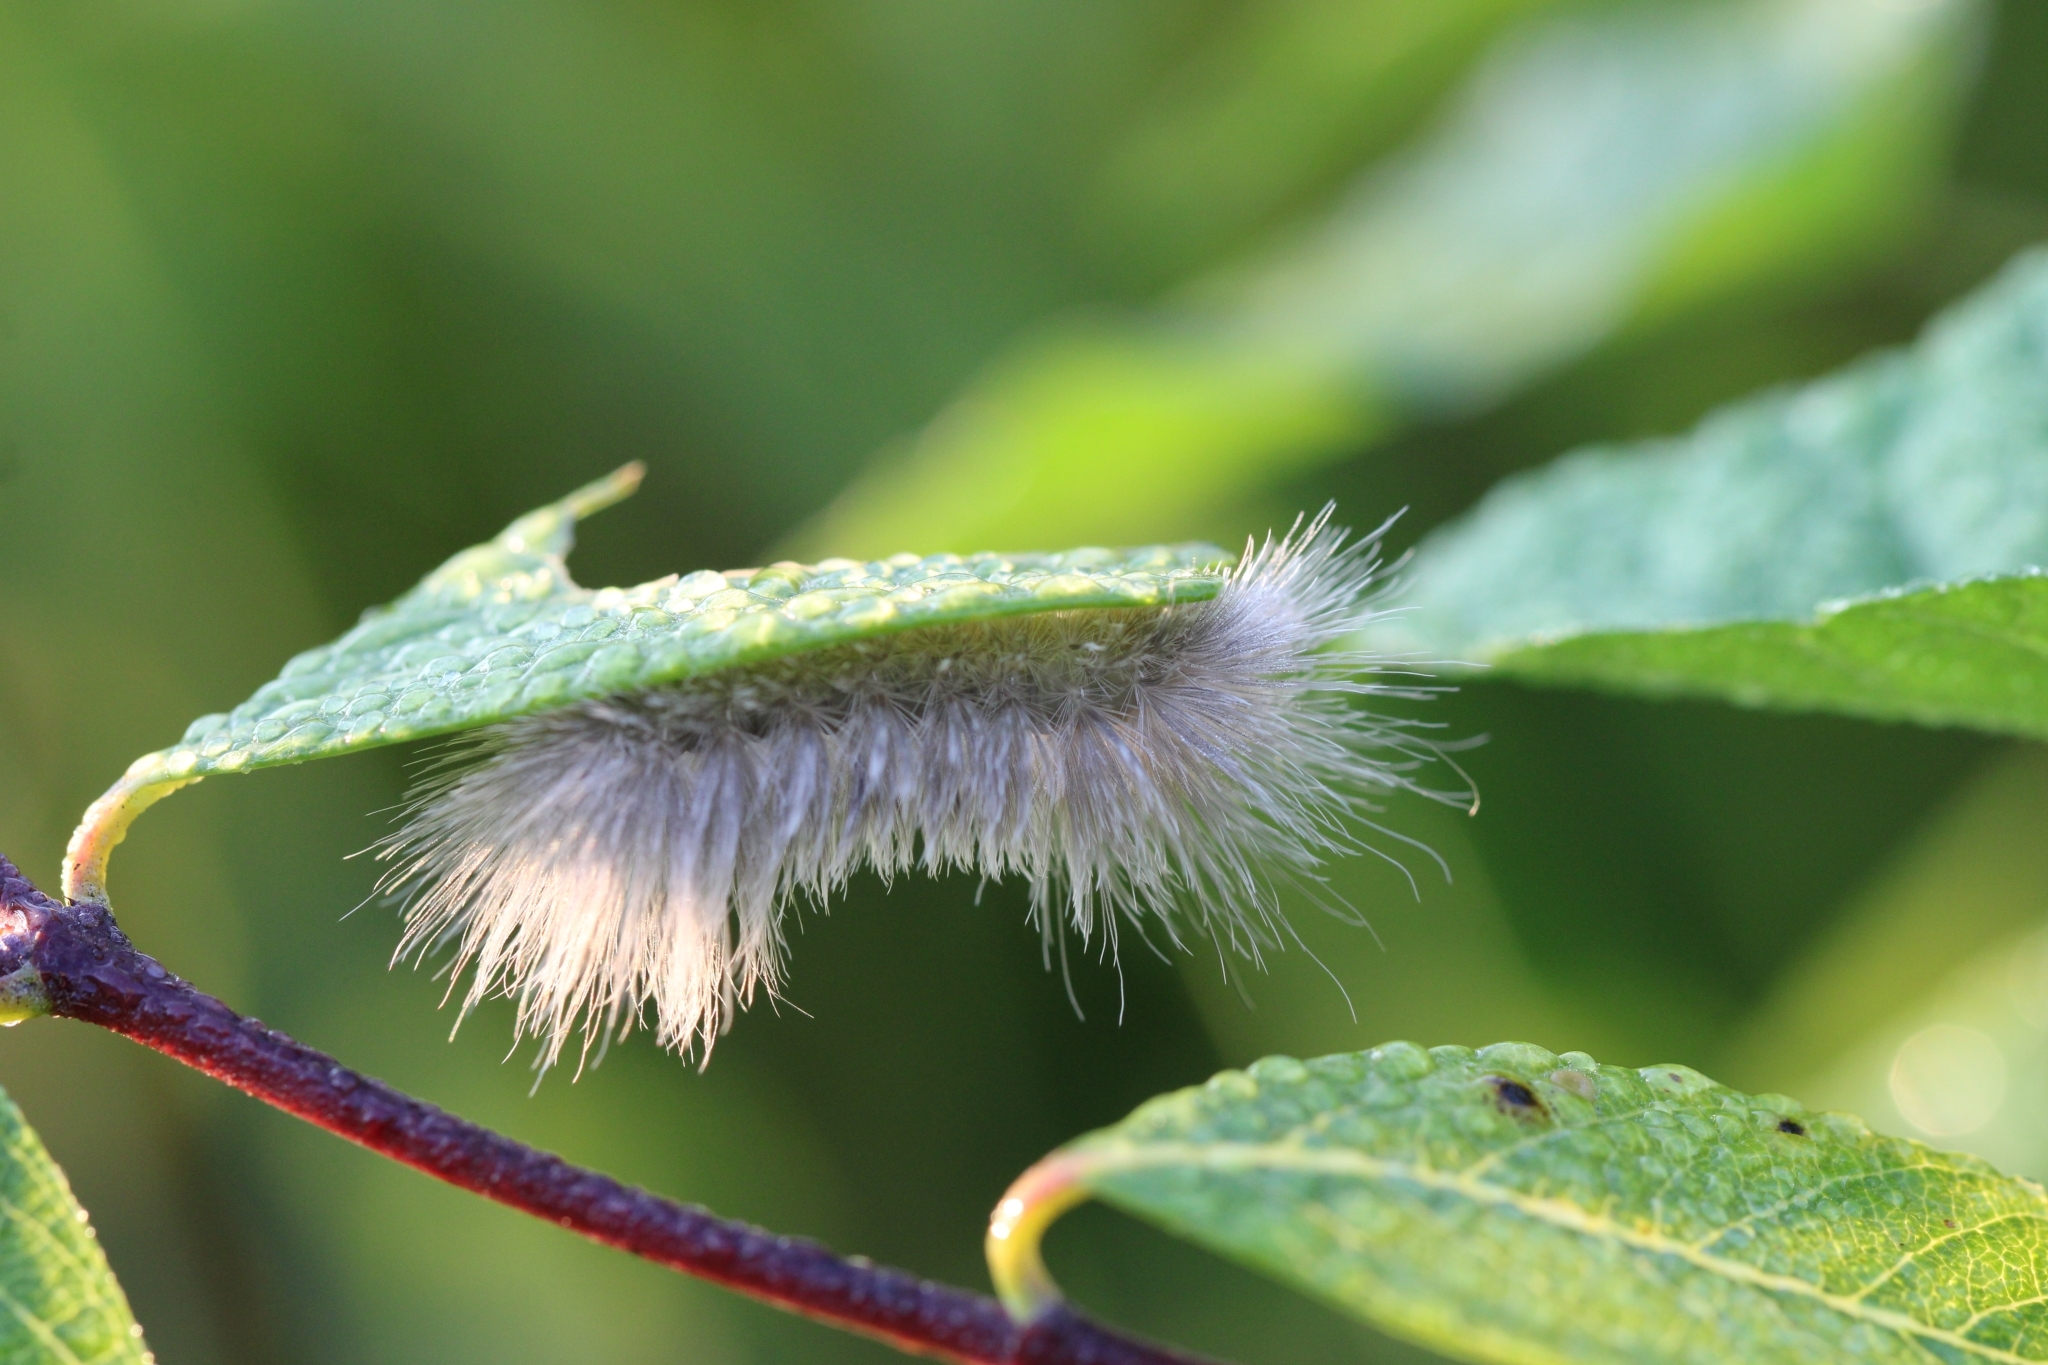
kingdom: Animalia
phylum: Arthropoda
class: Insecta
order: Lepidoptera
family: Erebidae
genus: Cycnia
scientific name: Cycnia tenera
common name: Delicate cycnia moth
